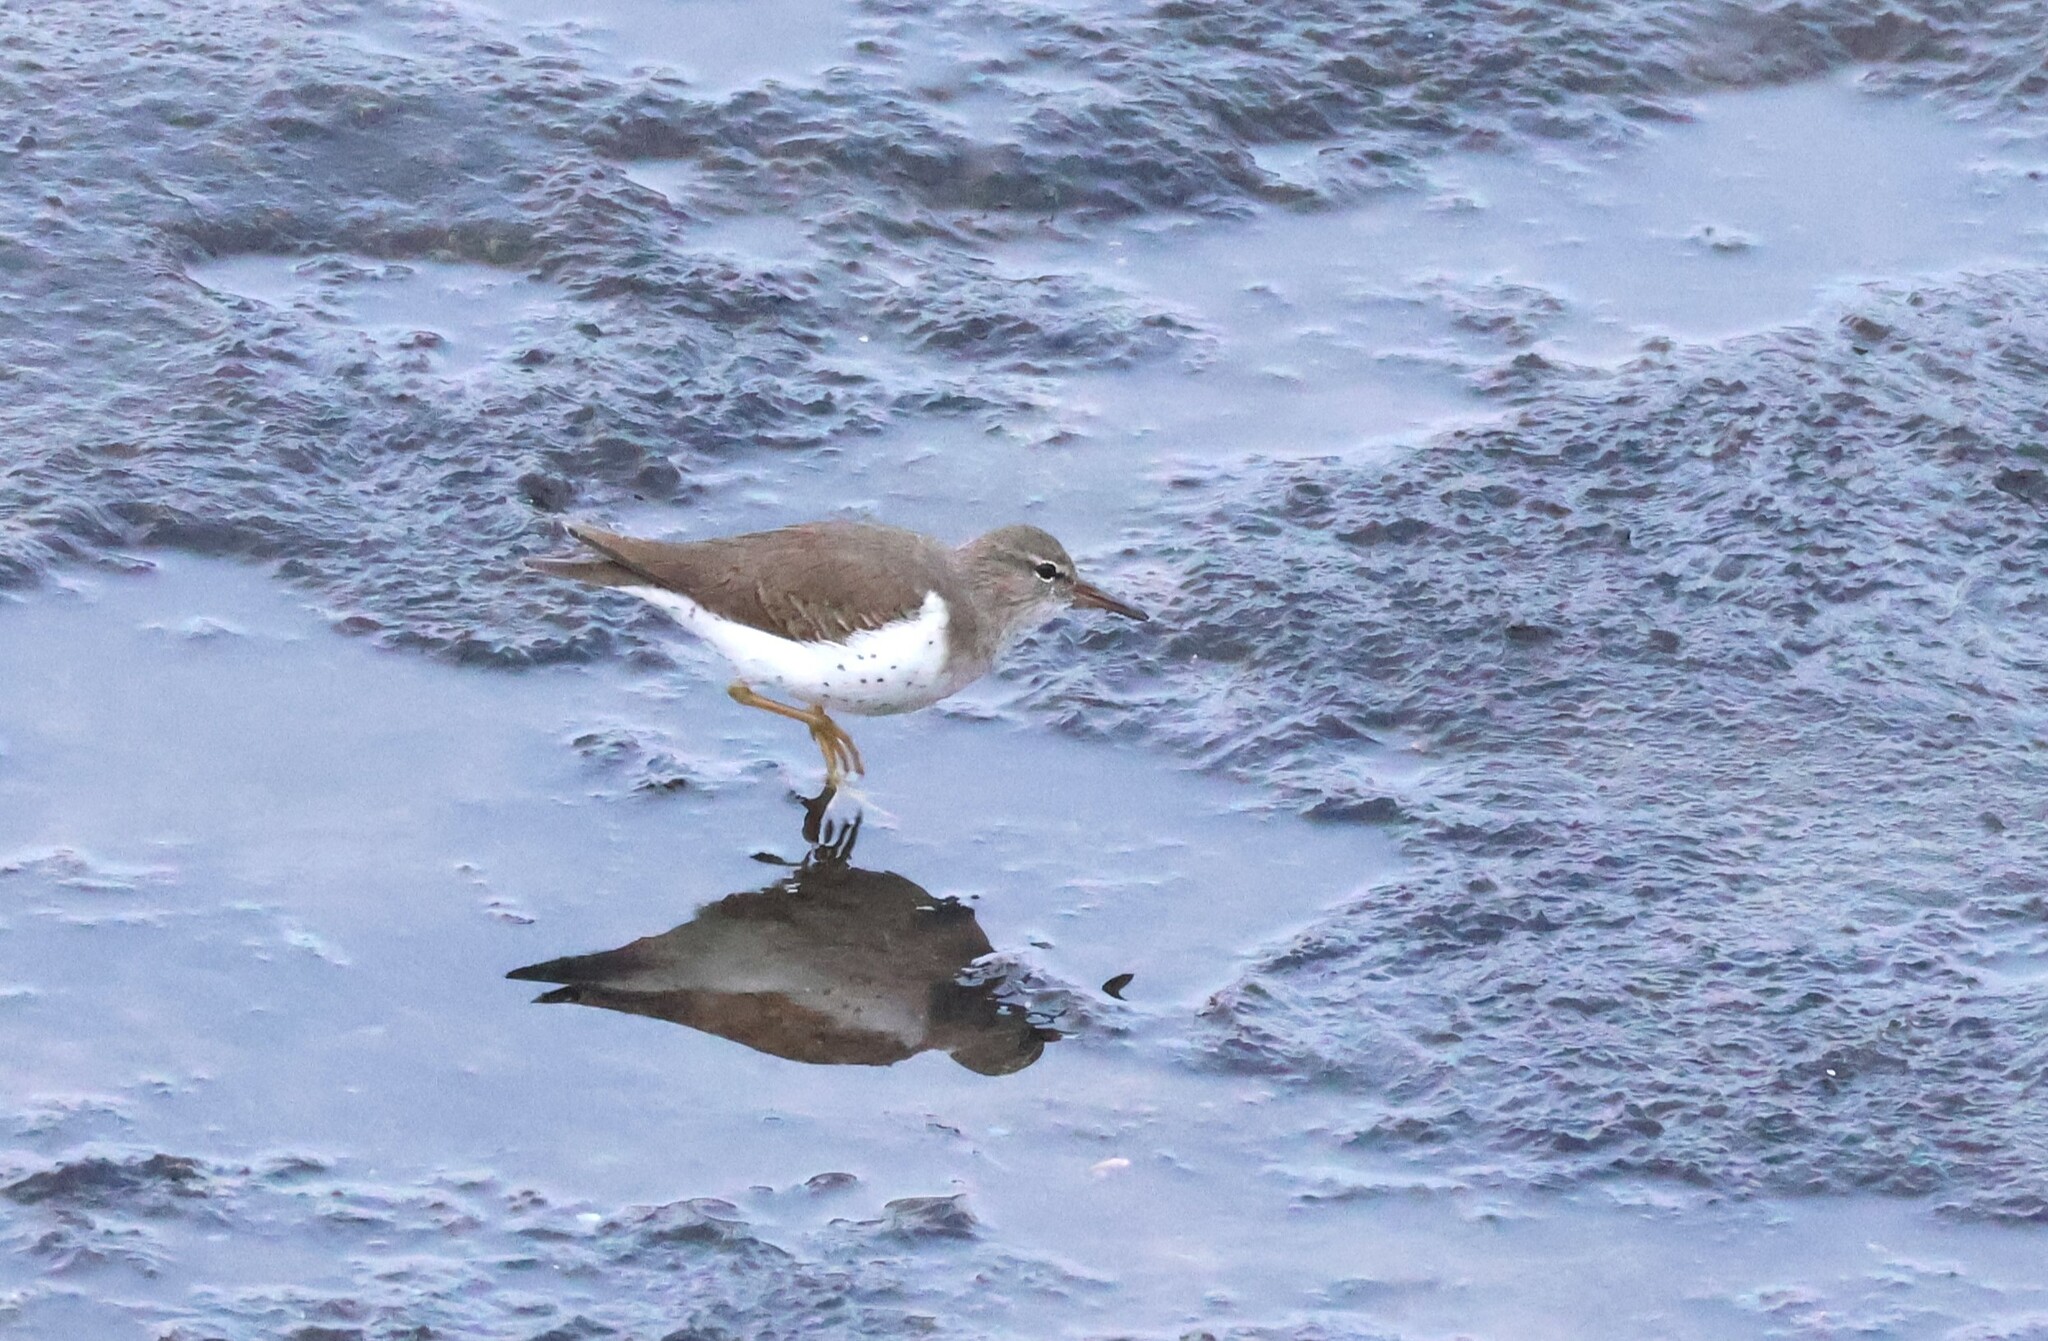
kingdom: Animalia
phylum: Chordata
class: Aves
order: Charadriiformes
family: Scolopacidae
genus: Actitis
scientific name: Actitis macularius
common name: Spotted sandpiper
